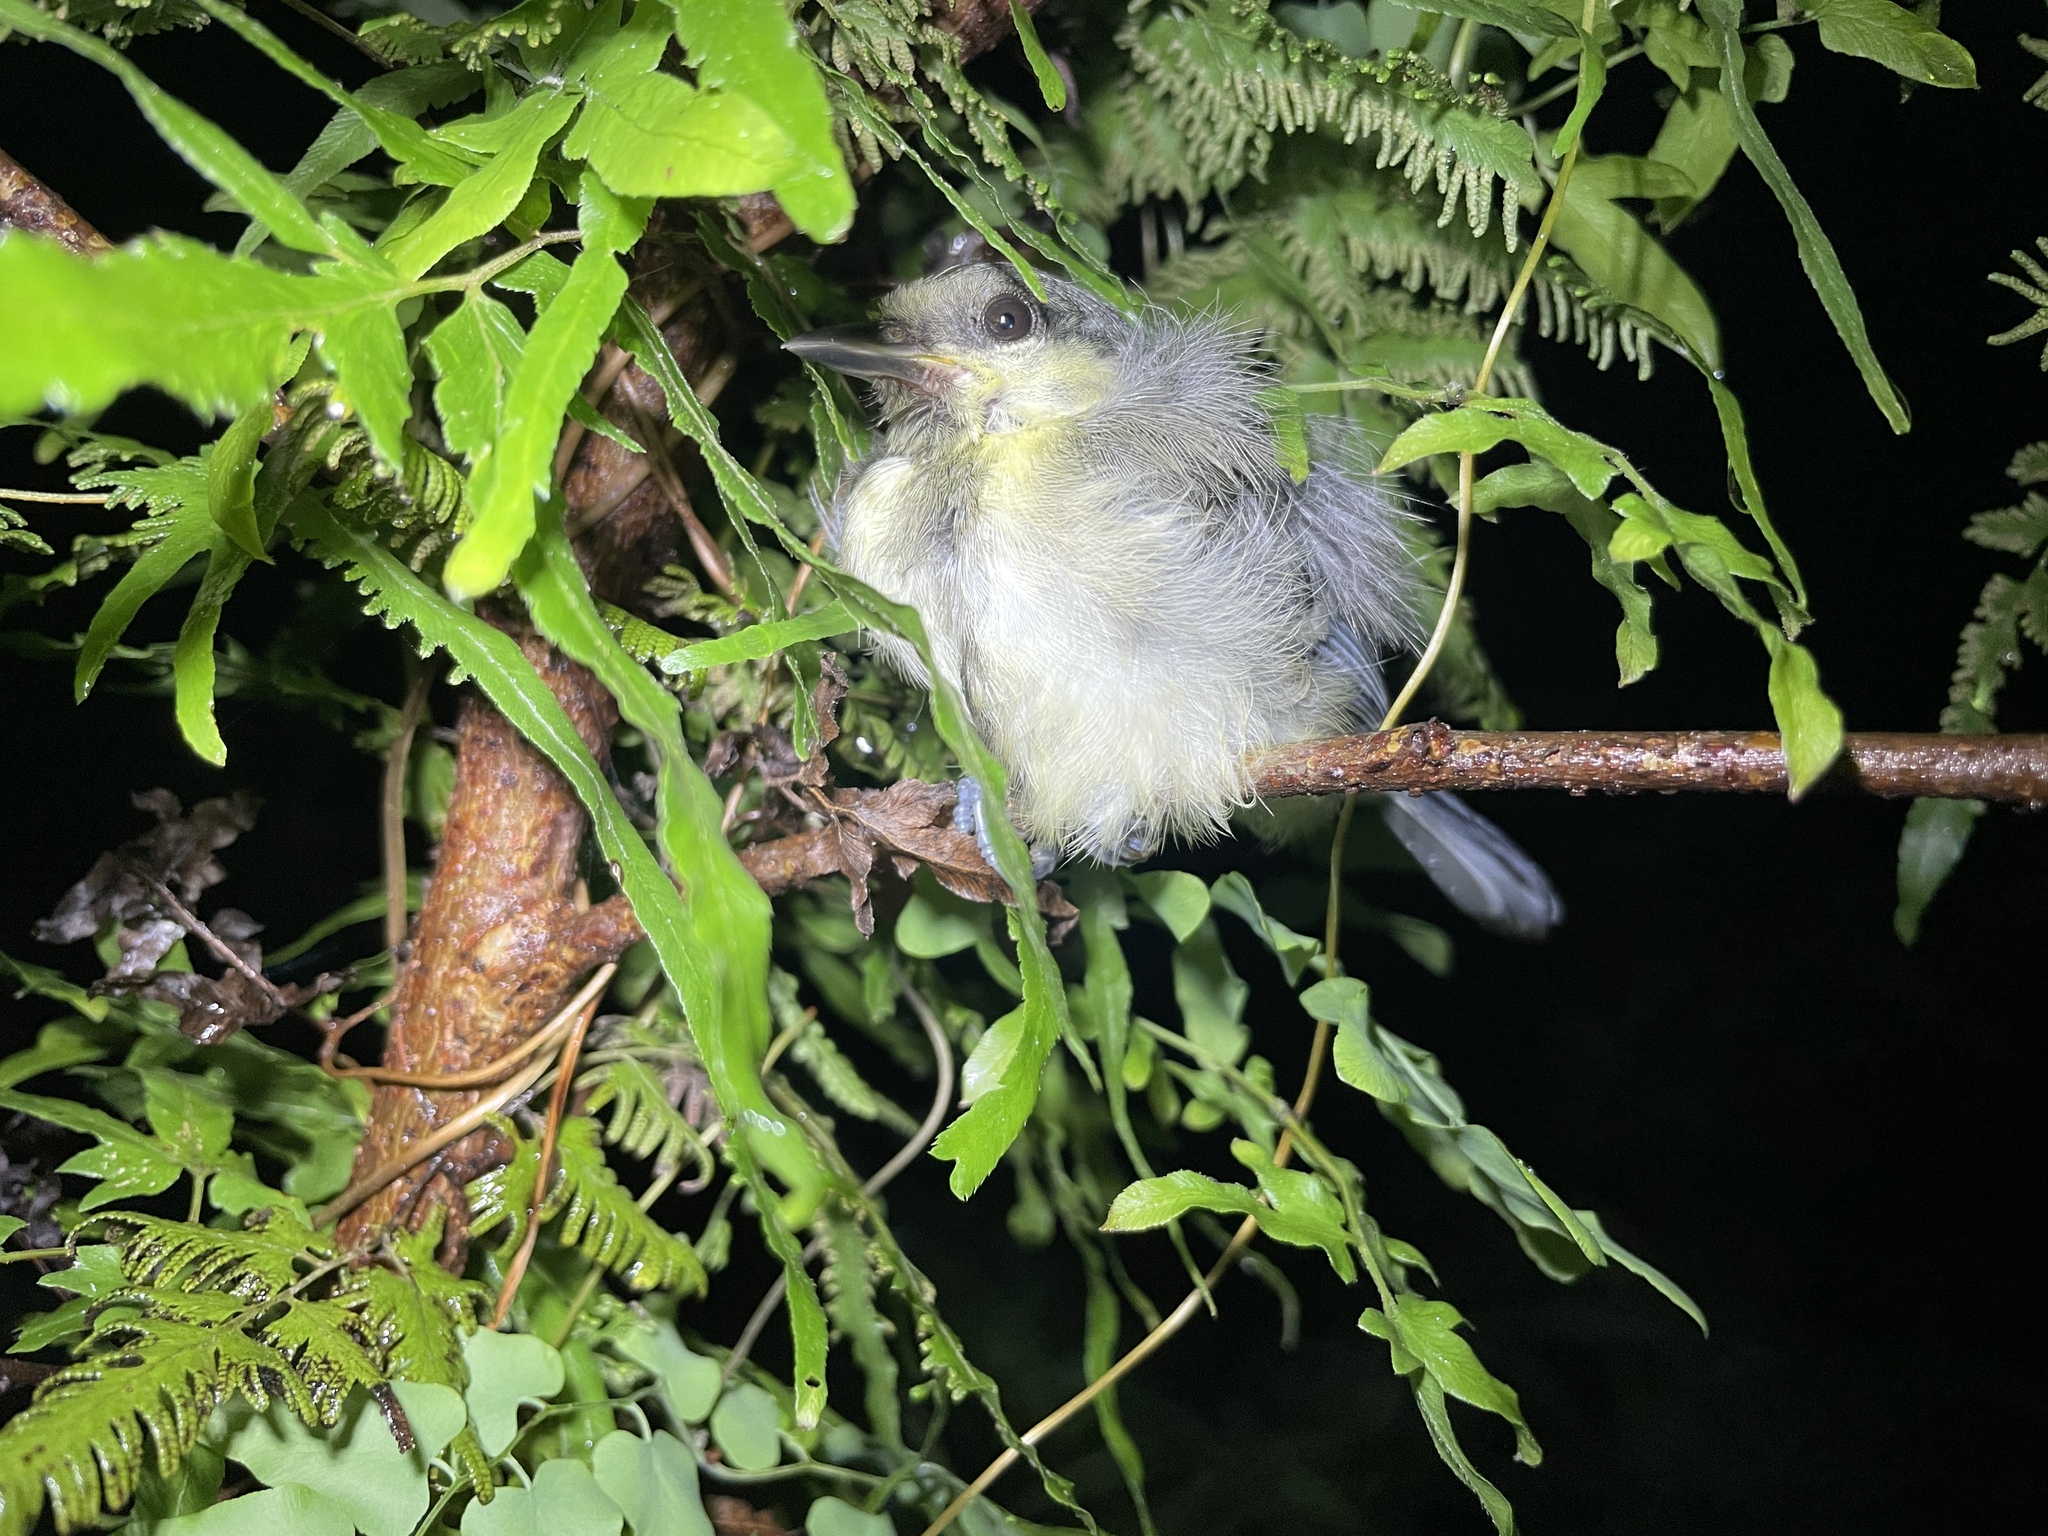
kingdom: Animalia
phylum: Chordata
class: Aves
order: Passeriformes
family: Paridae
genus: Parus
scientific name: Parus minor
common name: Japanese tit
